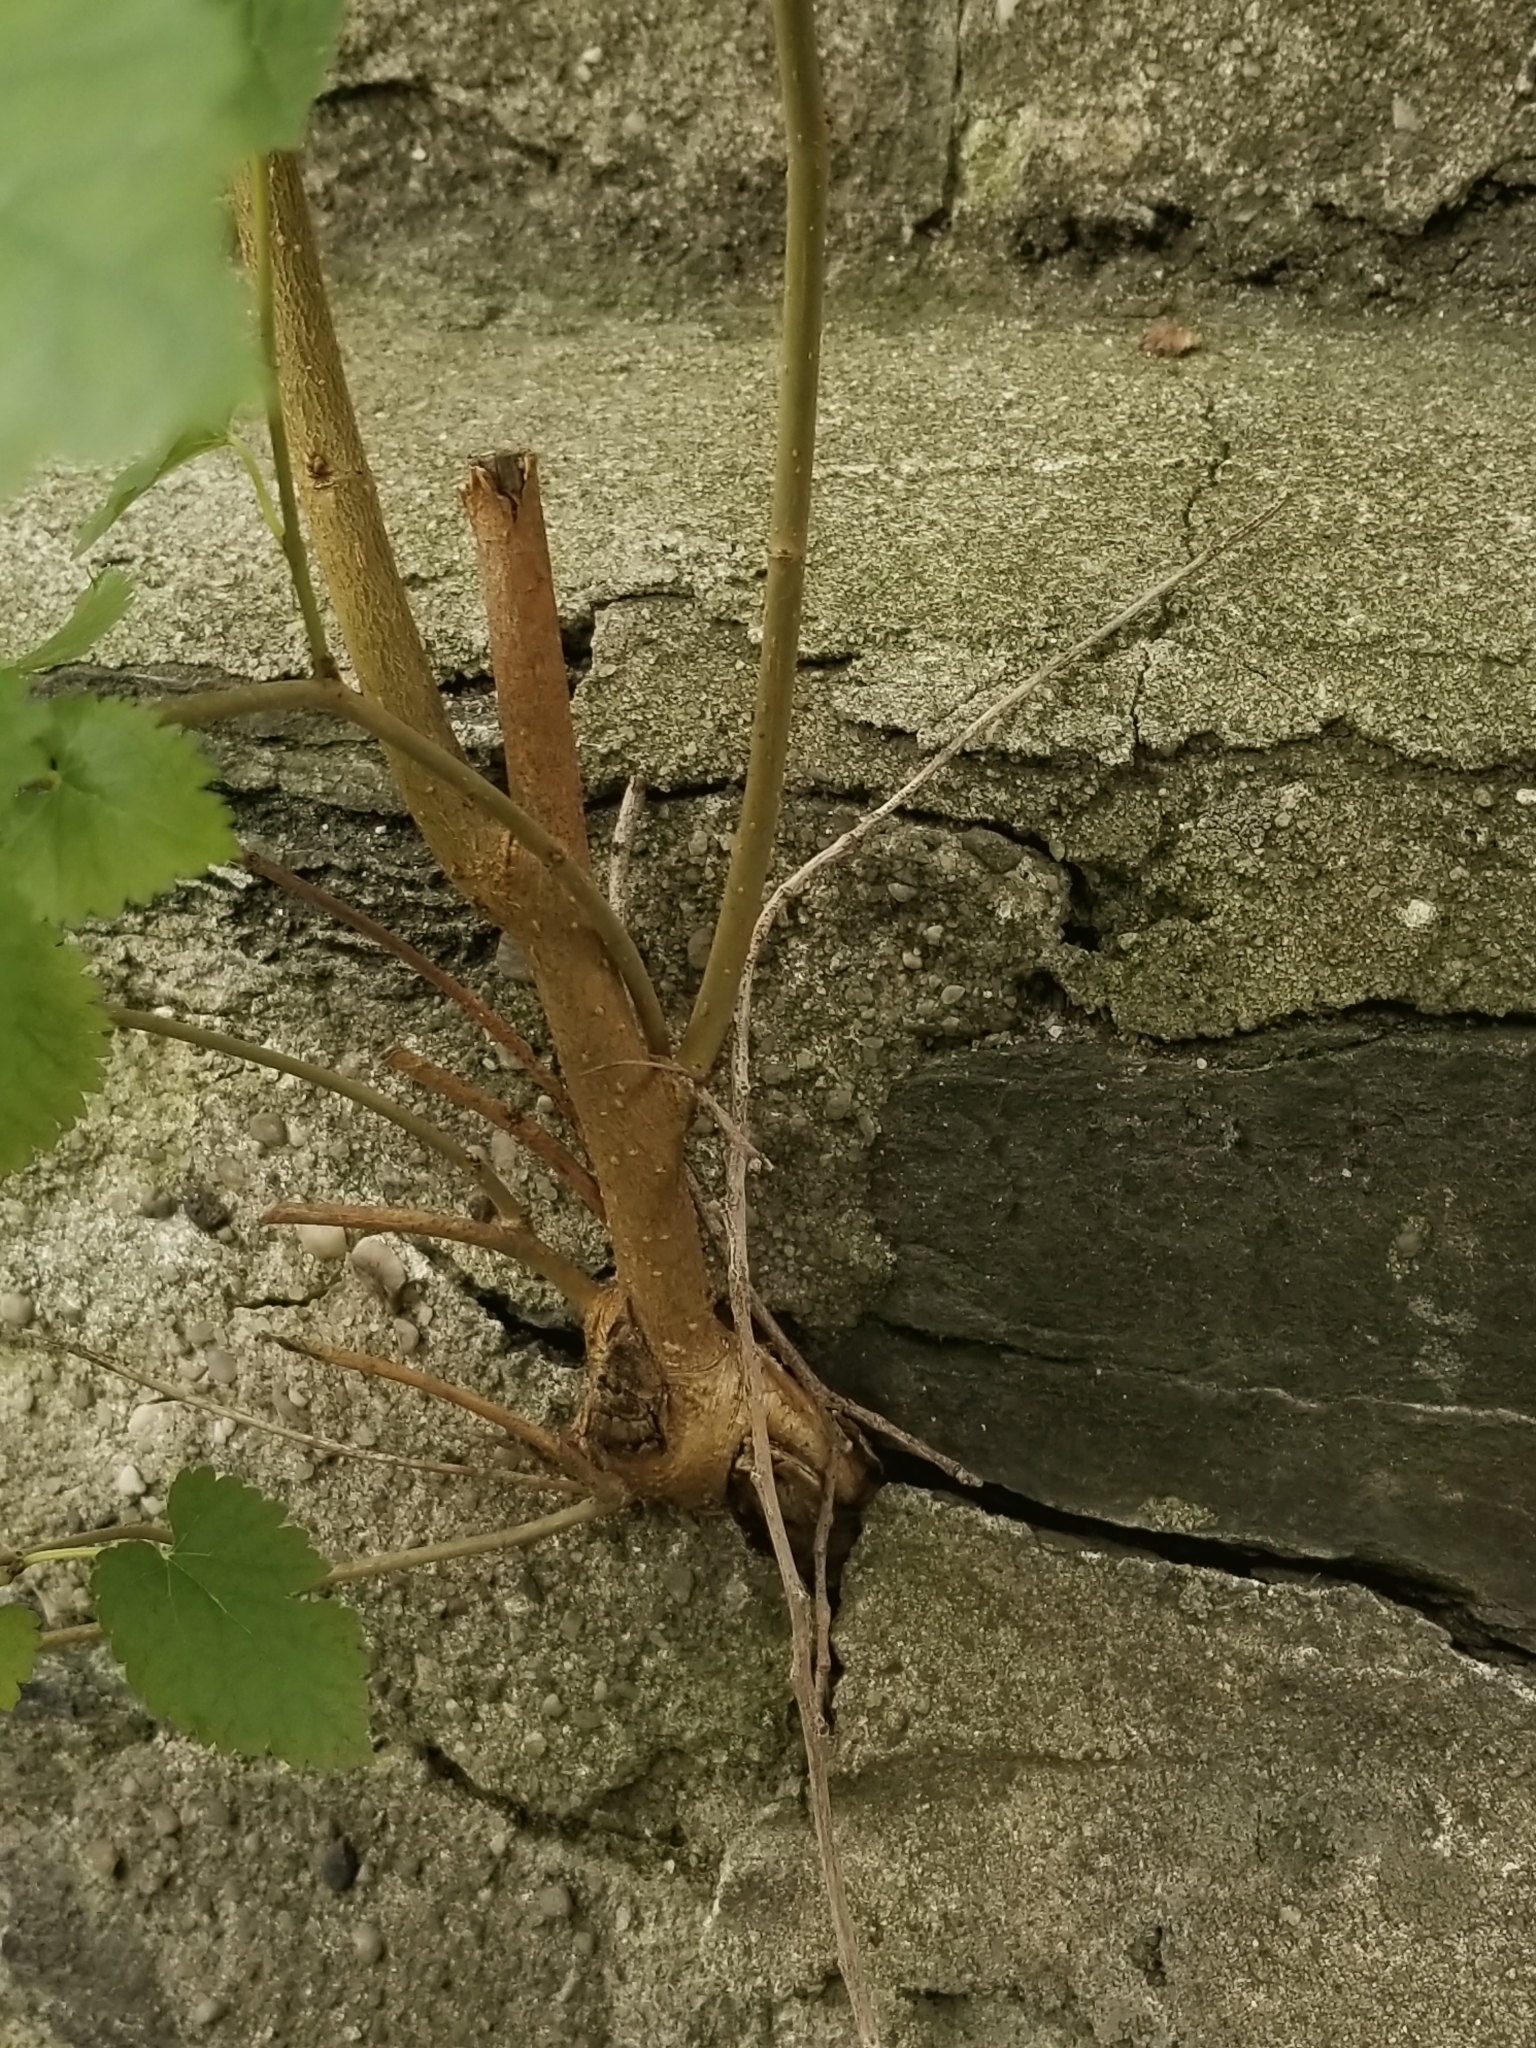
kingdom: Plantae
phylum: Tracheophyta
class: Magnoliopsida
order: Rosales
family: Moraceae
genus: Morus
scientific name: Morus alba
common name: White mulberry
